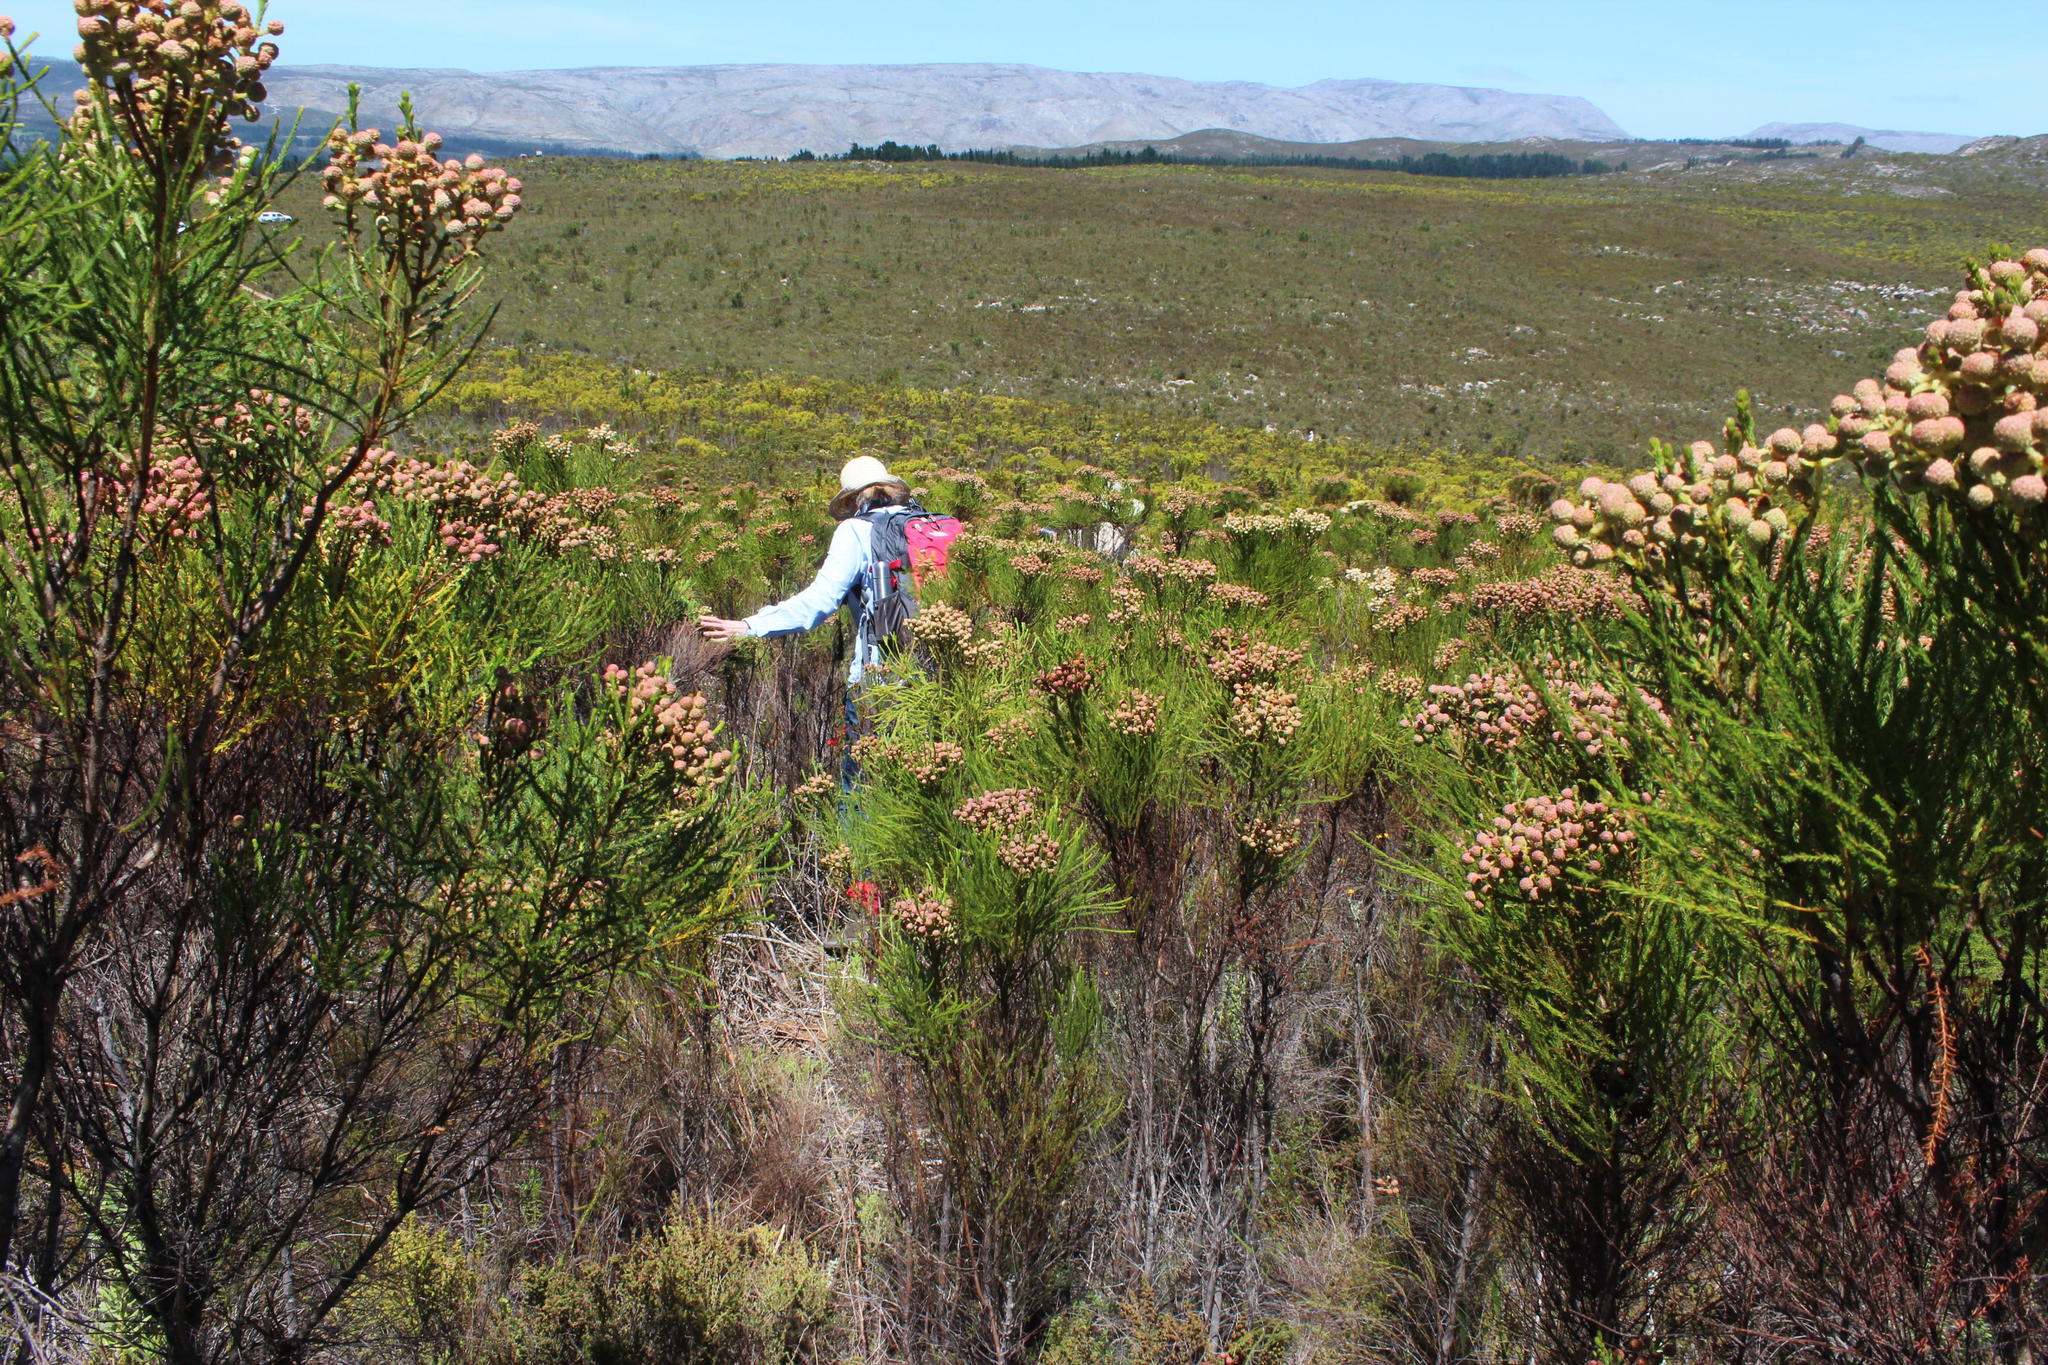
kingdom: Plantae
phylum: Tracheophyta
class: Magnoliopsida
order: Bruniales
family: Bruniaceae
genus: Berzelia
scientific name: Berzelia lanuginosa
